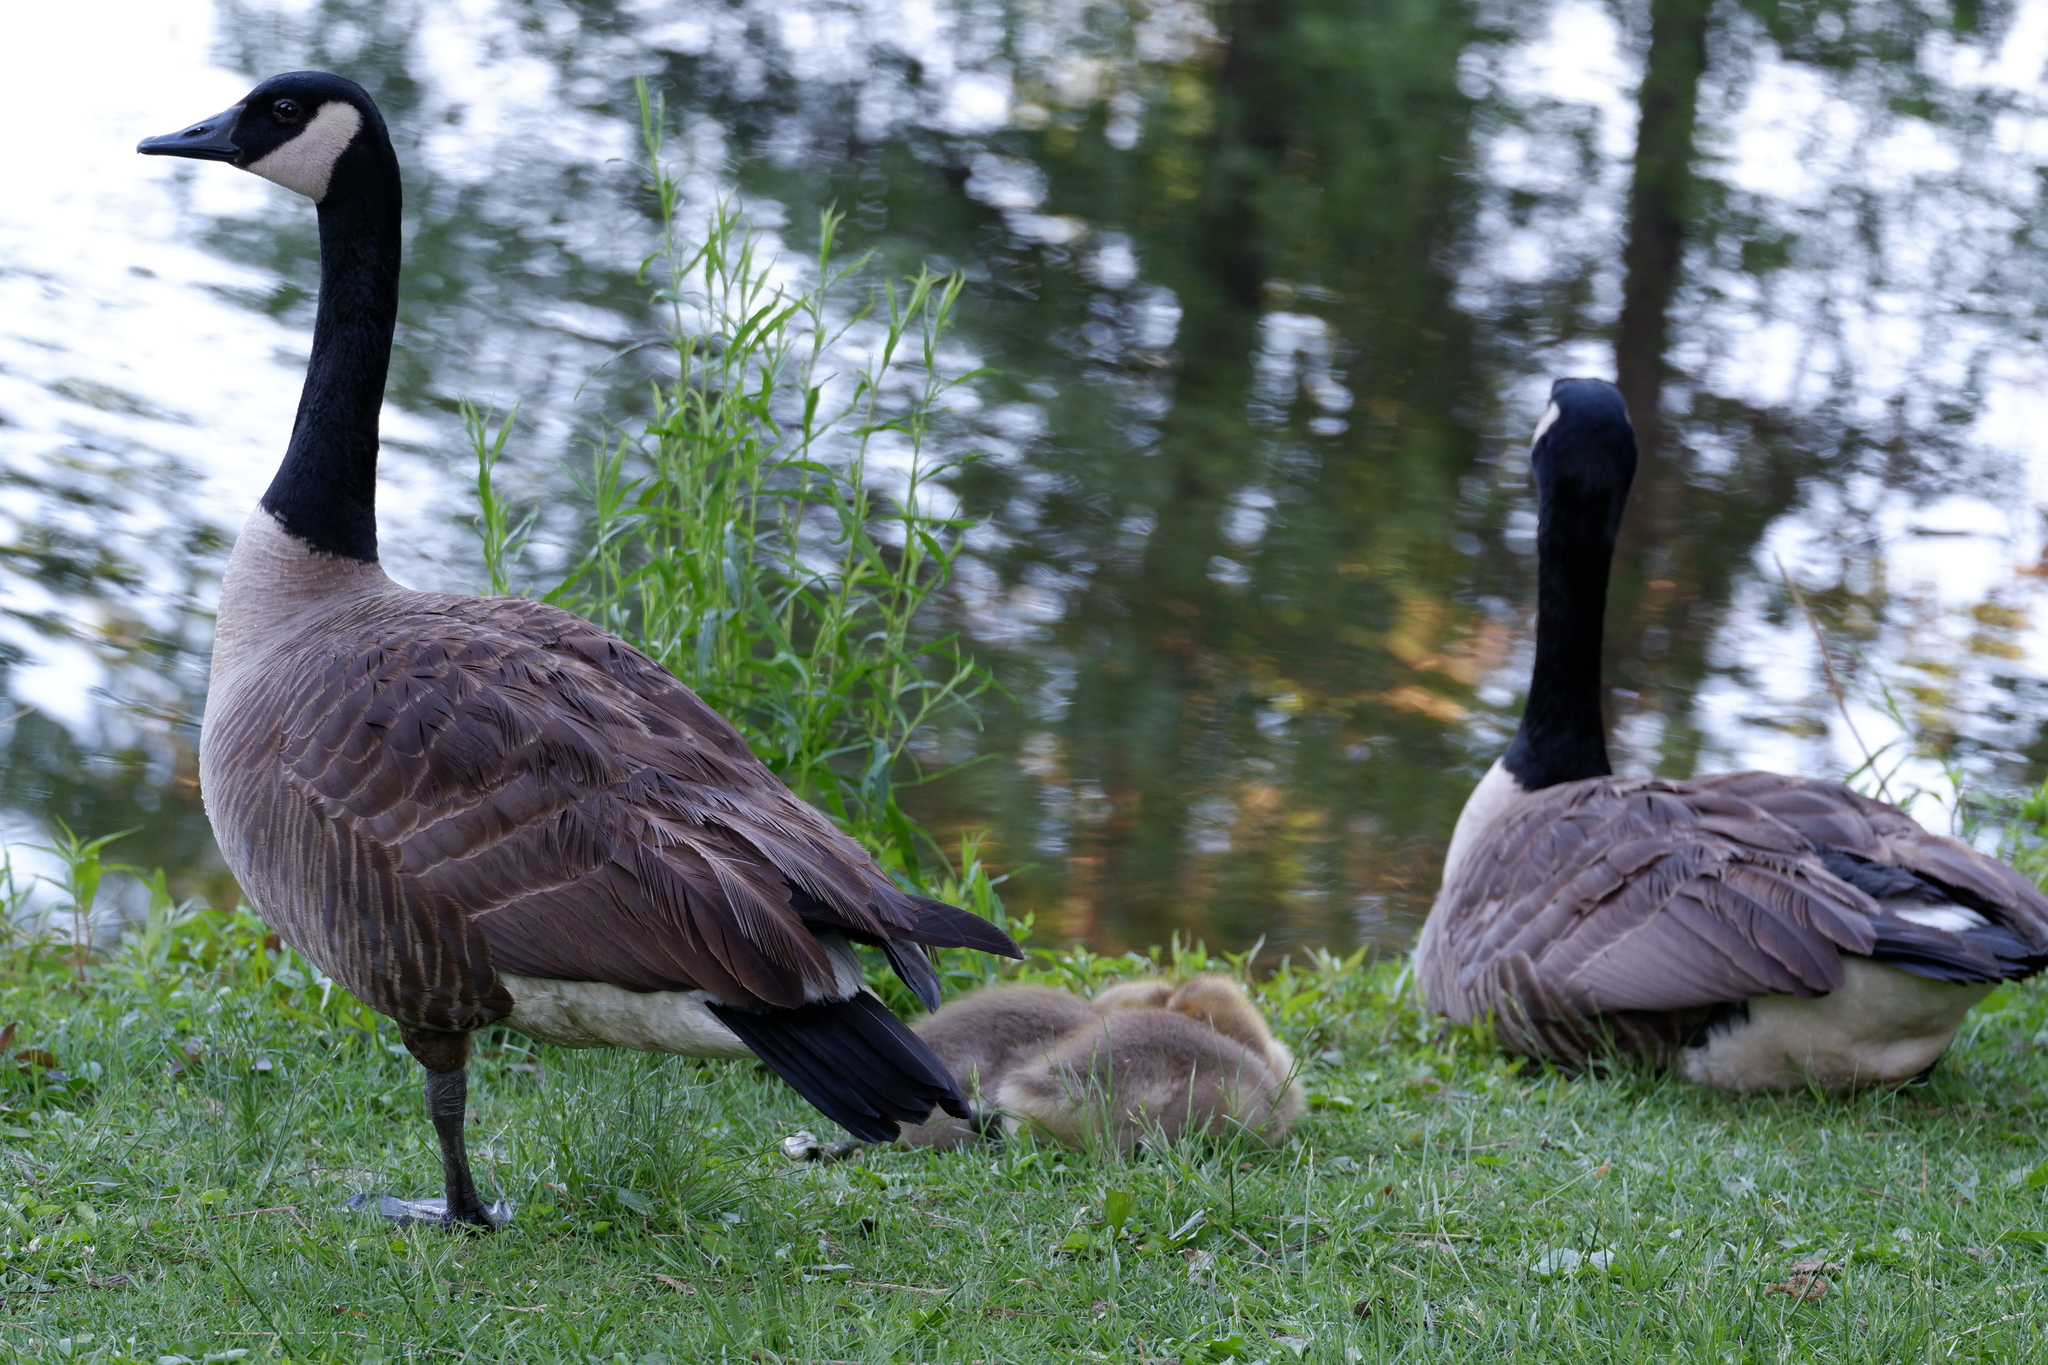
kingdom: Animalia
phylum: Chordata
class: Aves
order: Anseriformes
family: Anatidae
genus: Branta
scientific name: Branta canadensis
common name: Canada goose
